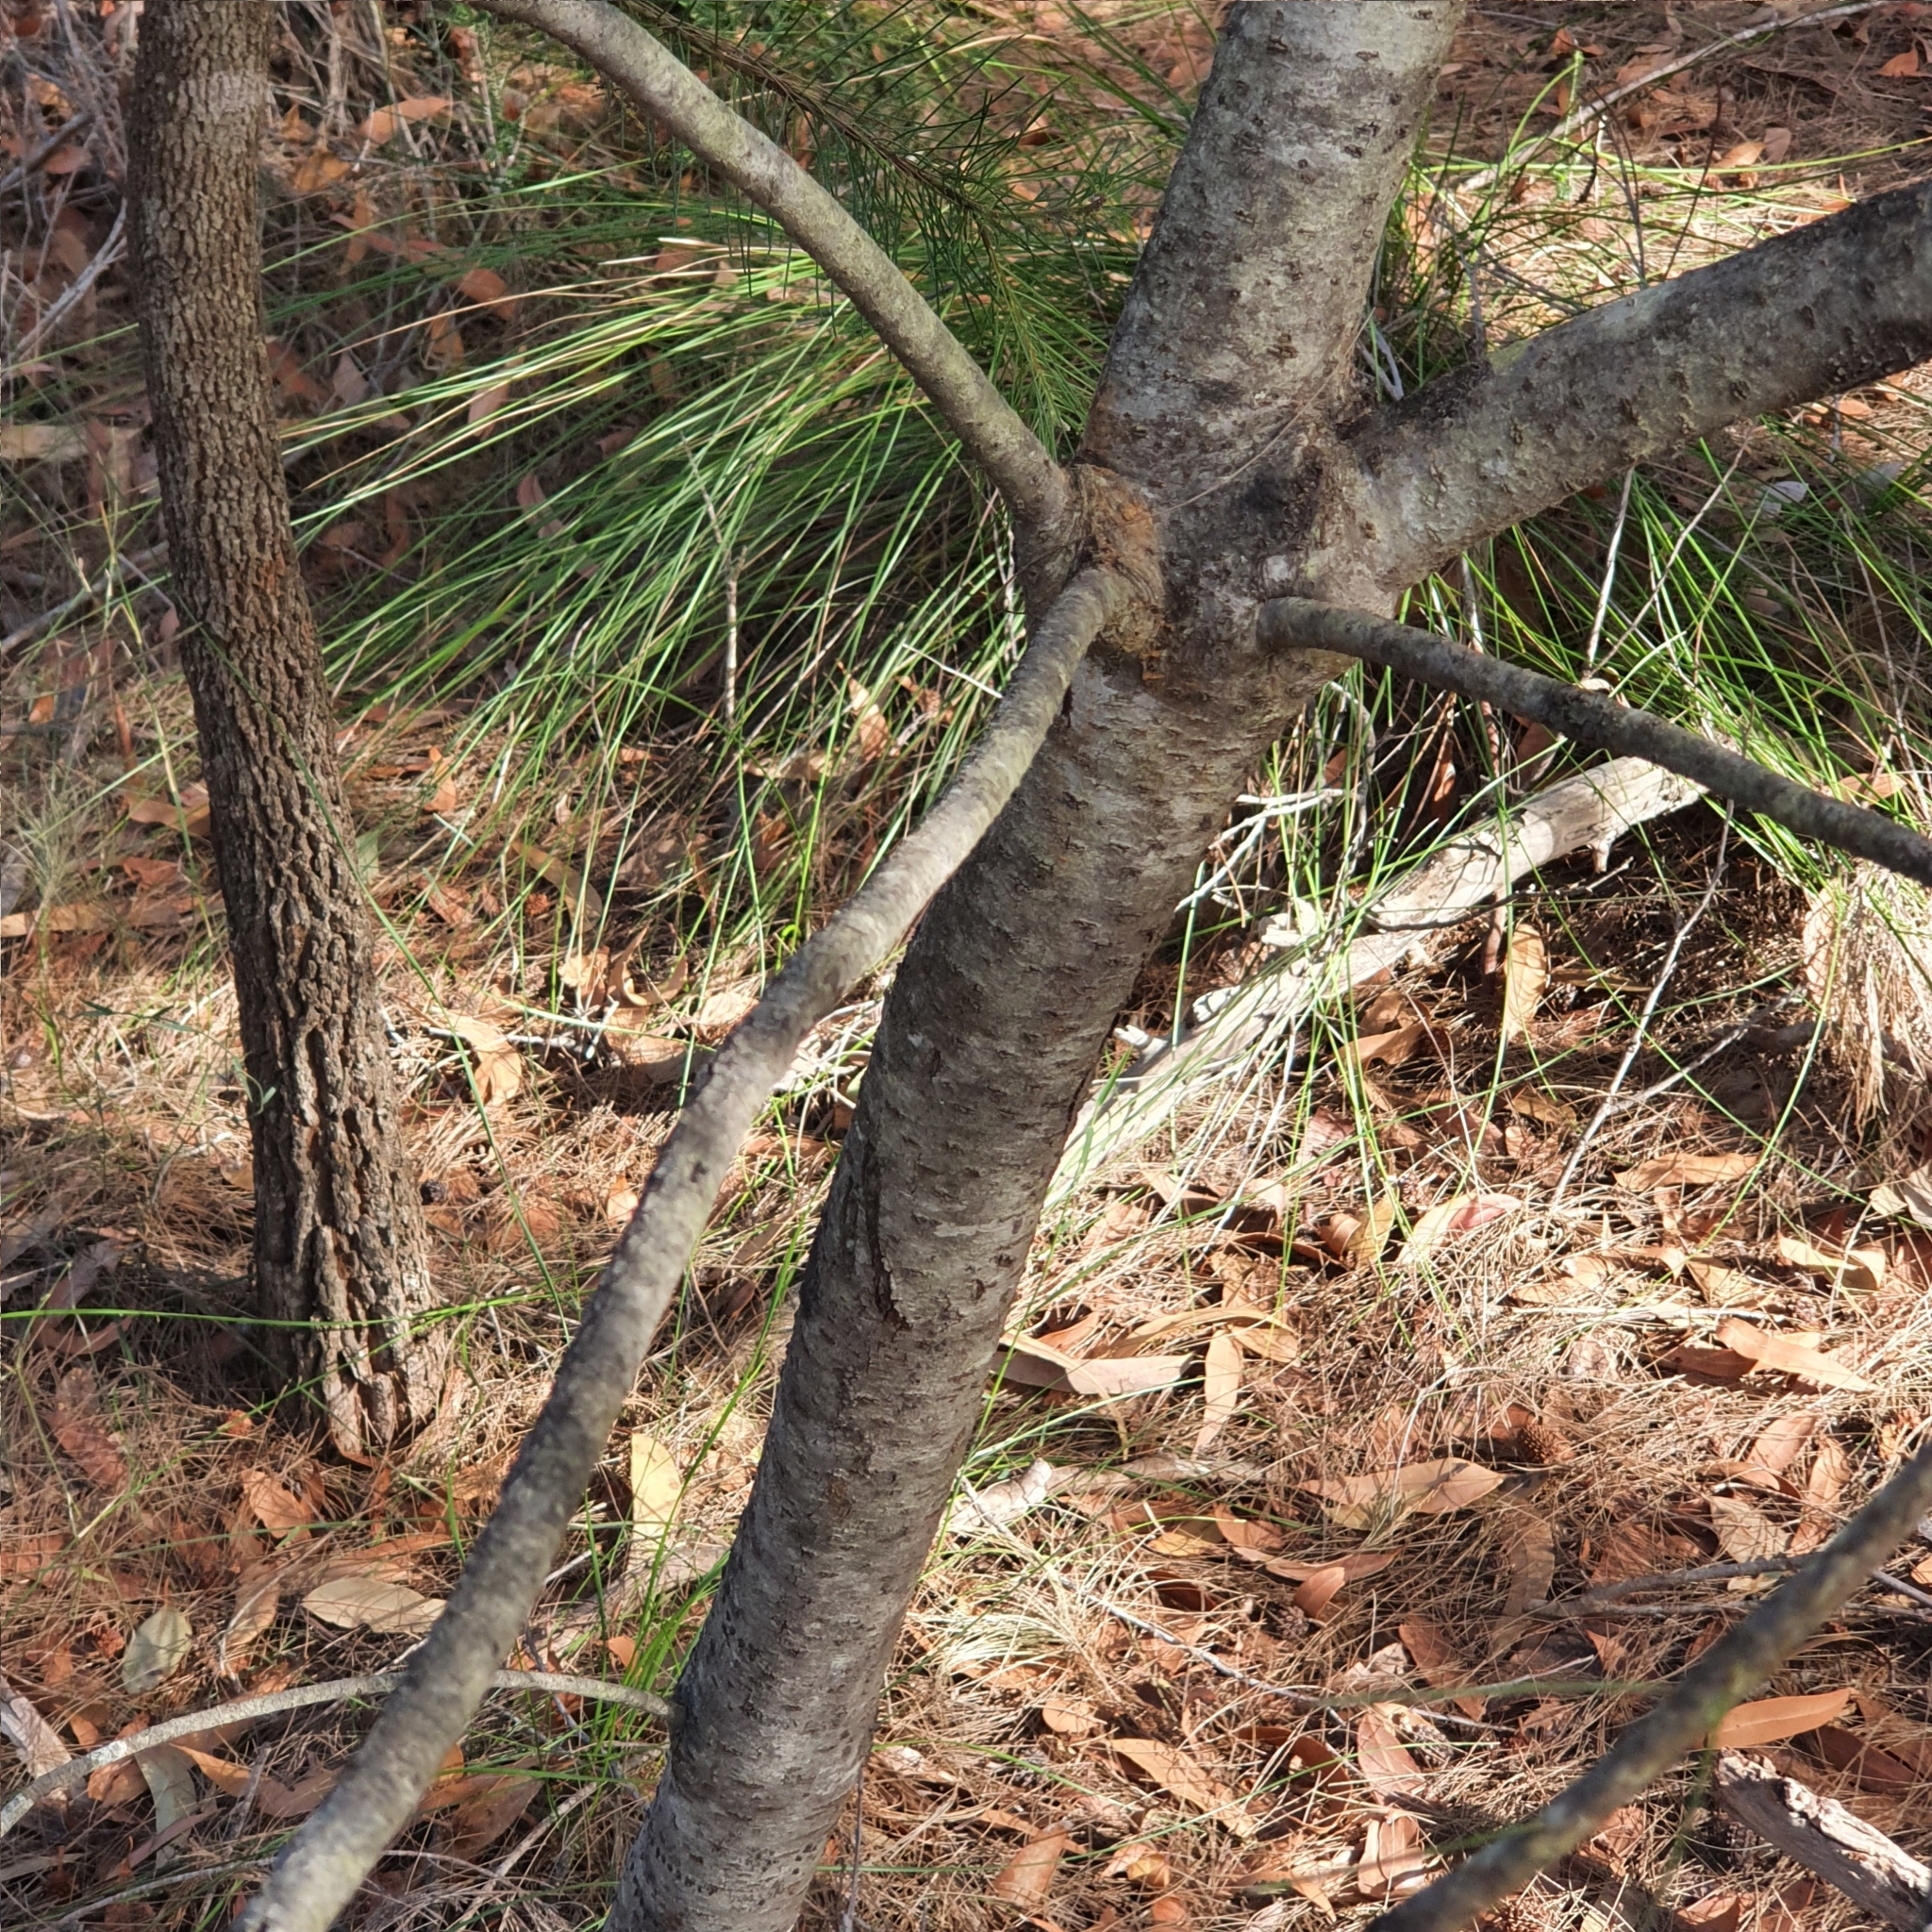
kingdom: Plantae
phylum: Tracheophyta
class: Magnoliopsida
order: Proteales
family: Proteaceae
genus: Persoonia
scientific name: Persoonia pinifolia
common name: Pine-leaf geebung
